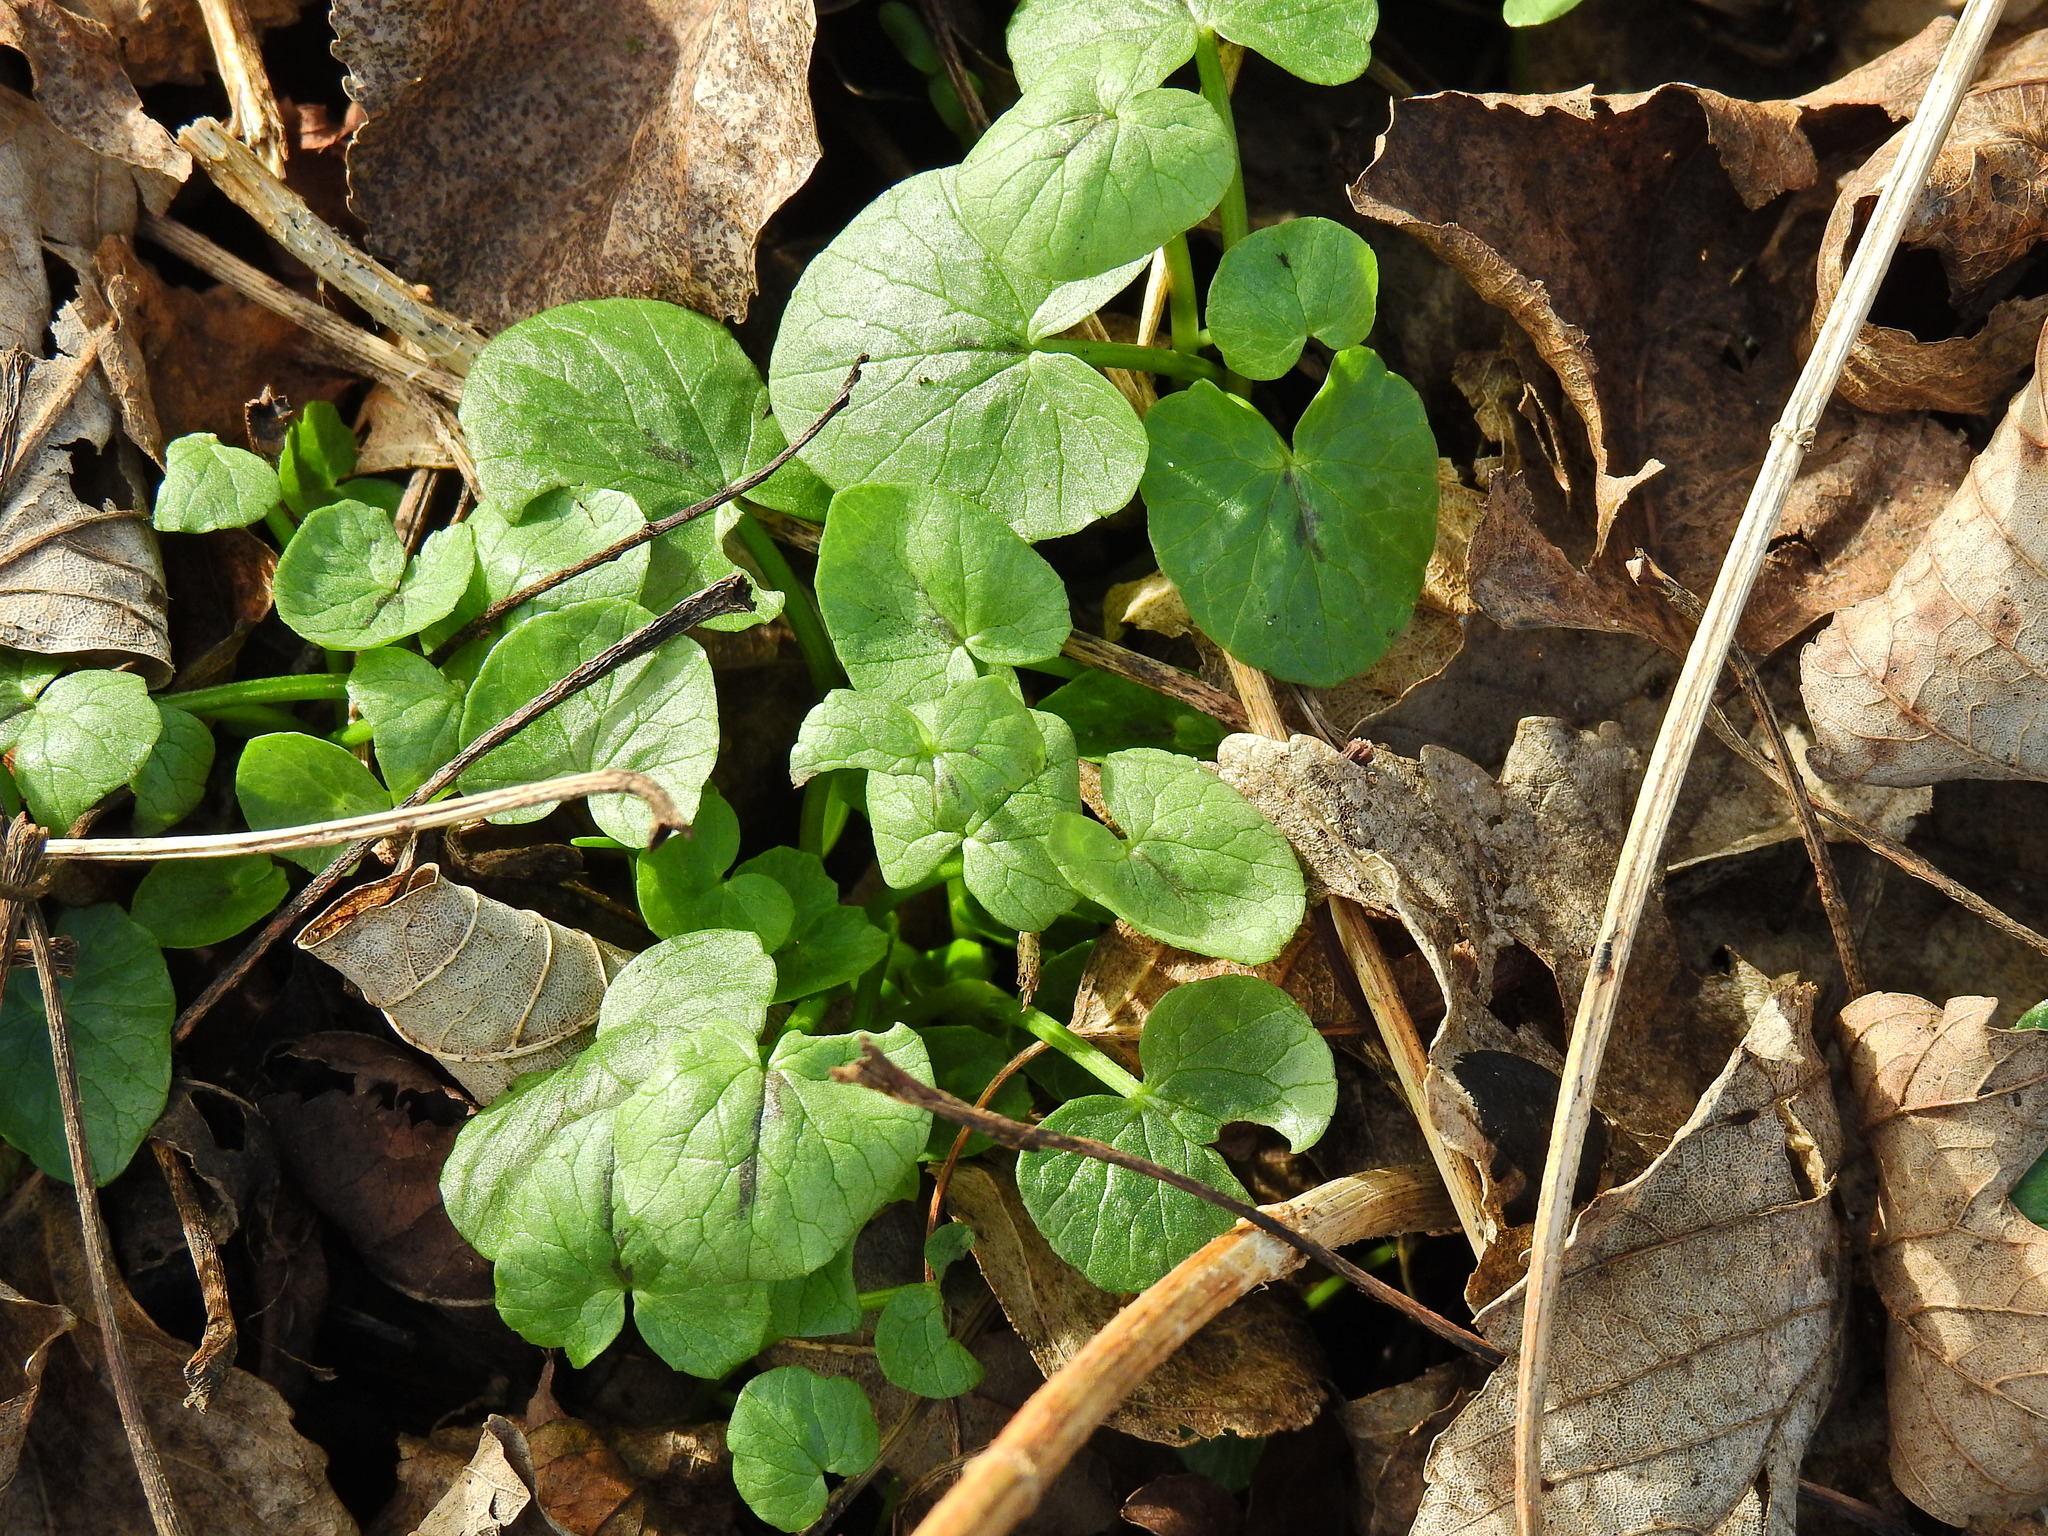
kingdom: Plantae
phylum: Tracheophyta
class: Magnoliopsida
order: Ranunculales
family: Ranunculaceae
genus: Ficaria
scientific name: Ficaria verna
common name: Lesser celandine
